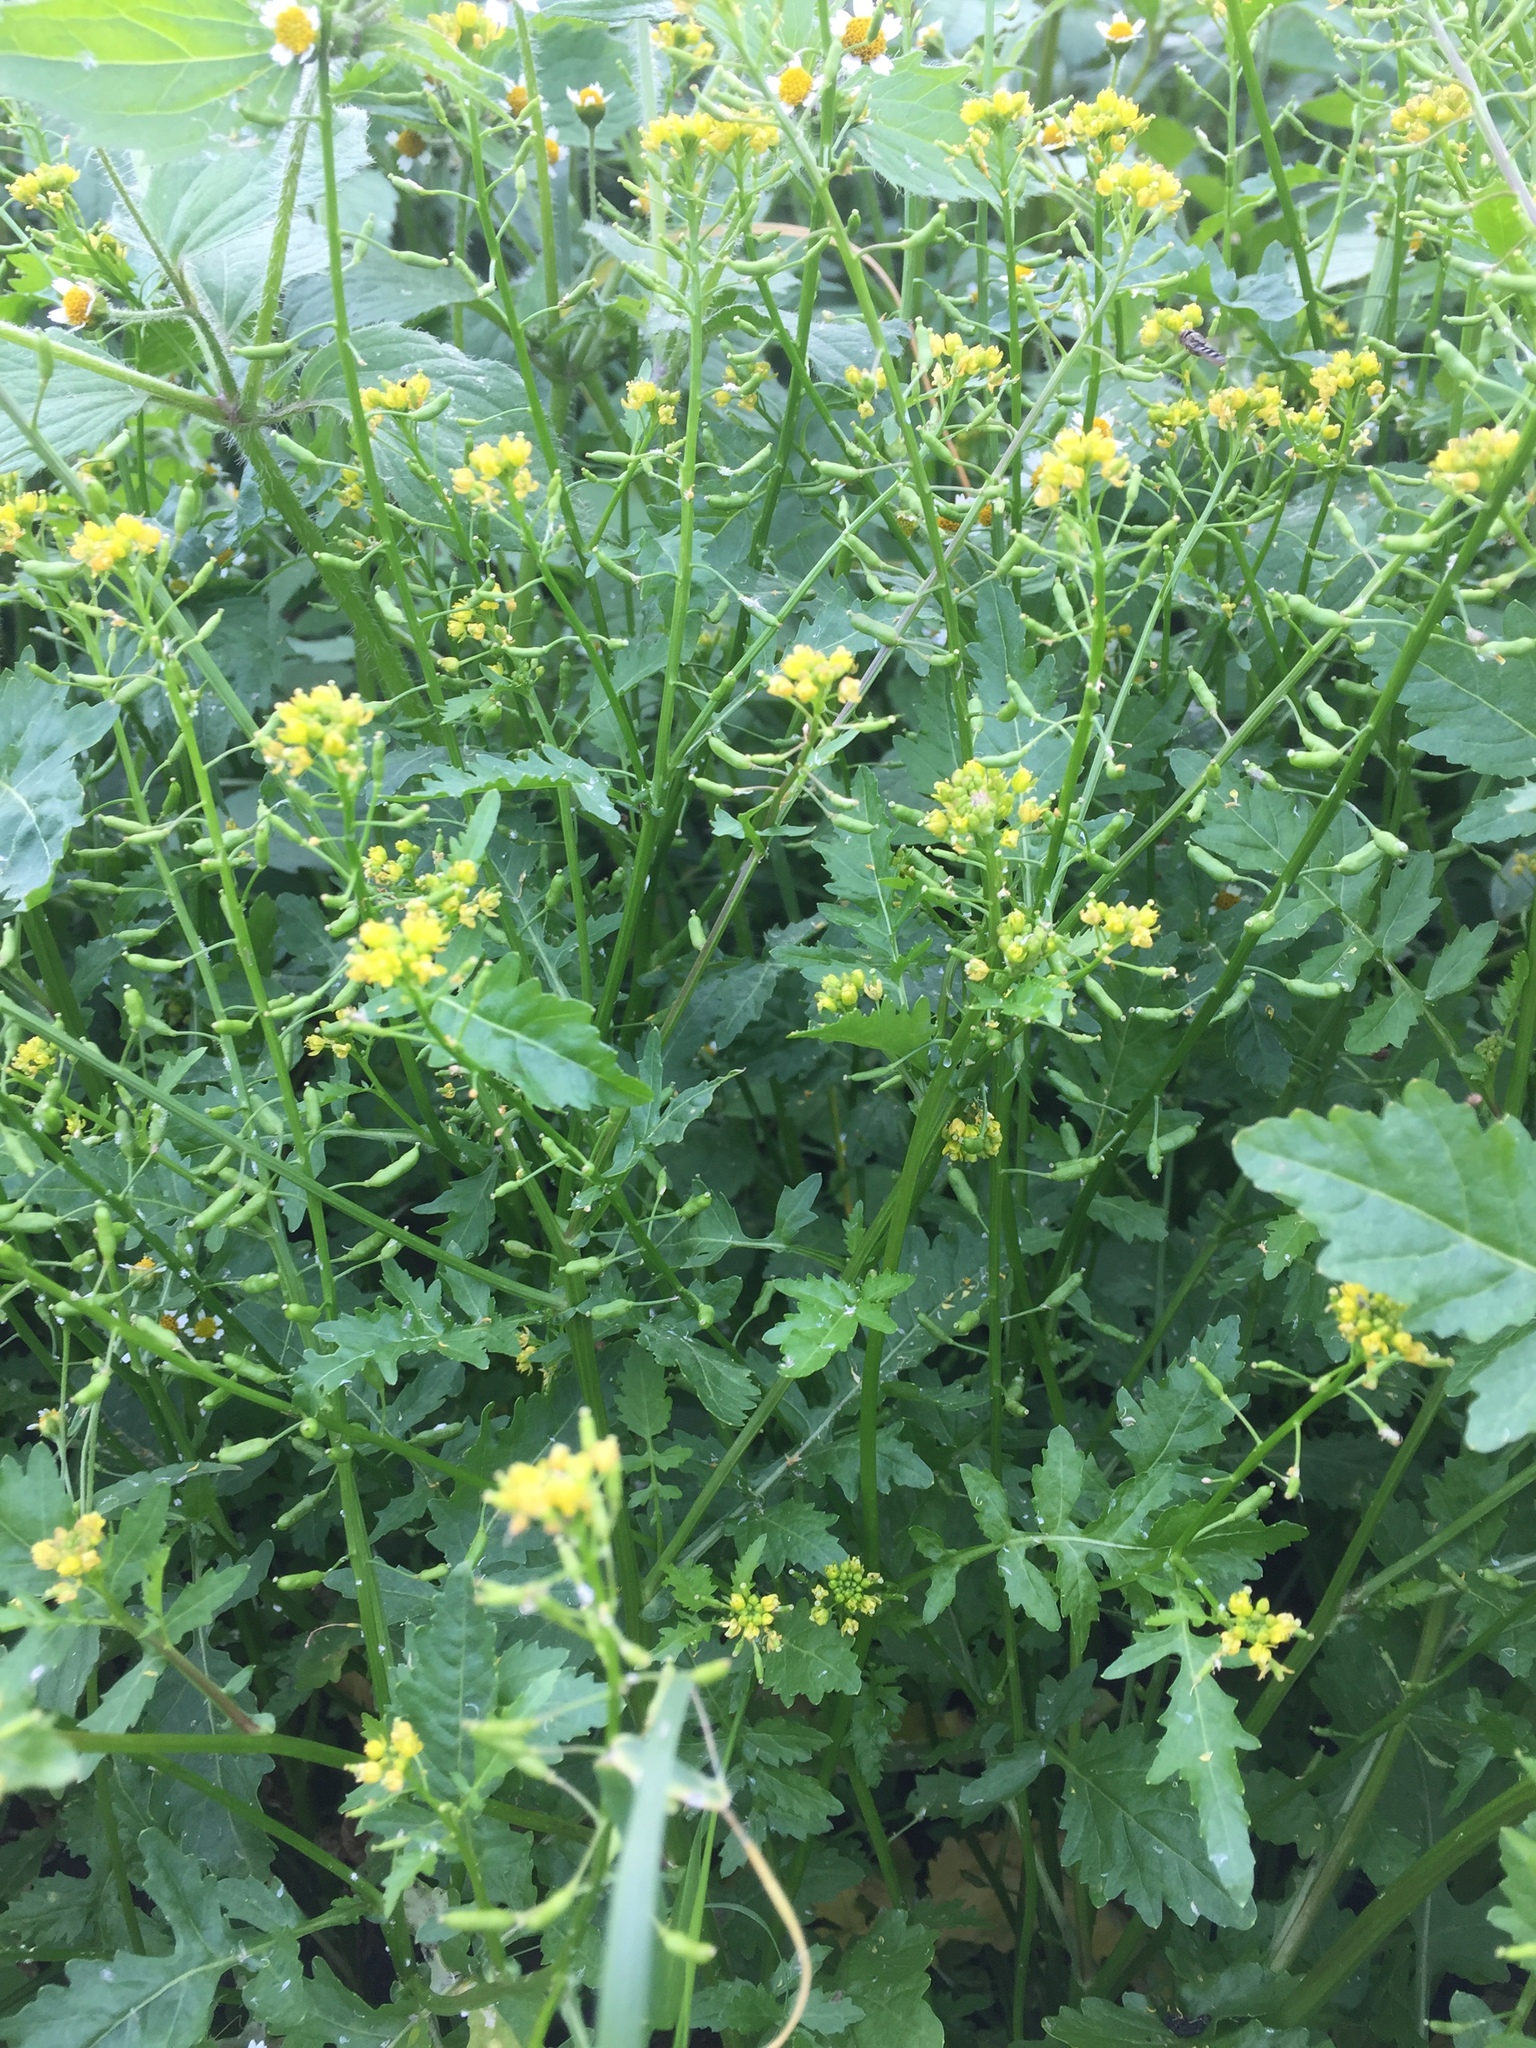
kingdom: Plantae
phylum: Tracheophyta
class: Magnoliopsida
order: Brassicales
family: Brassicaceae
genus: Rorippa
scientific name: Rorippa palustris
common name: Marsh yellow-cress
